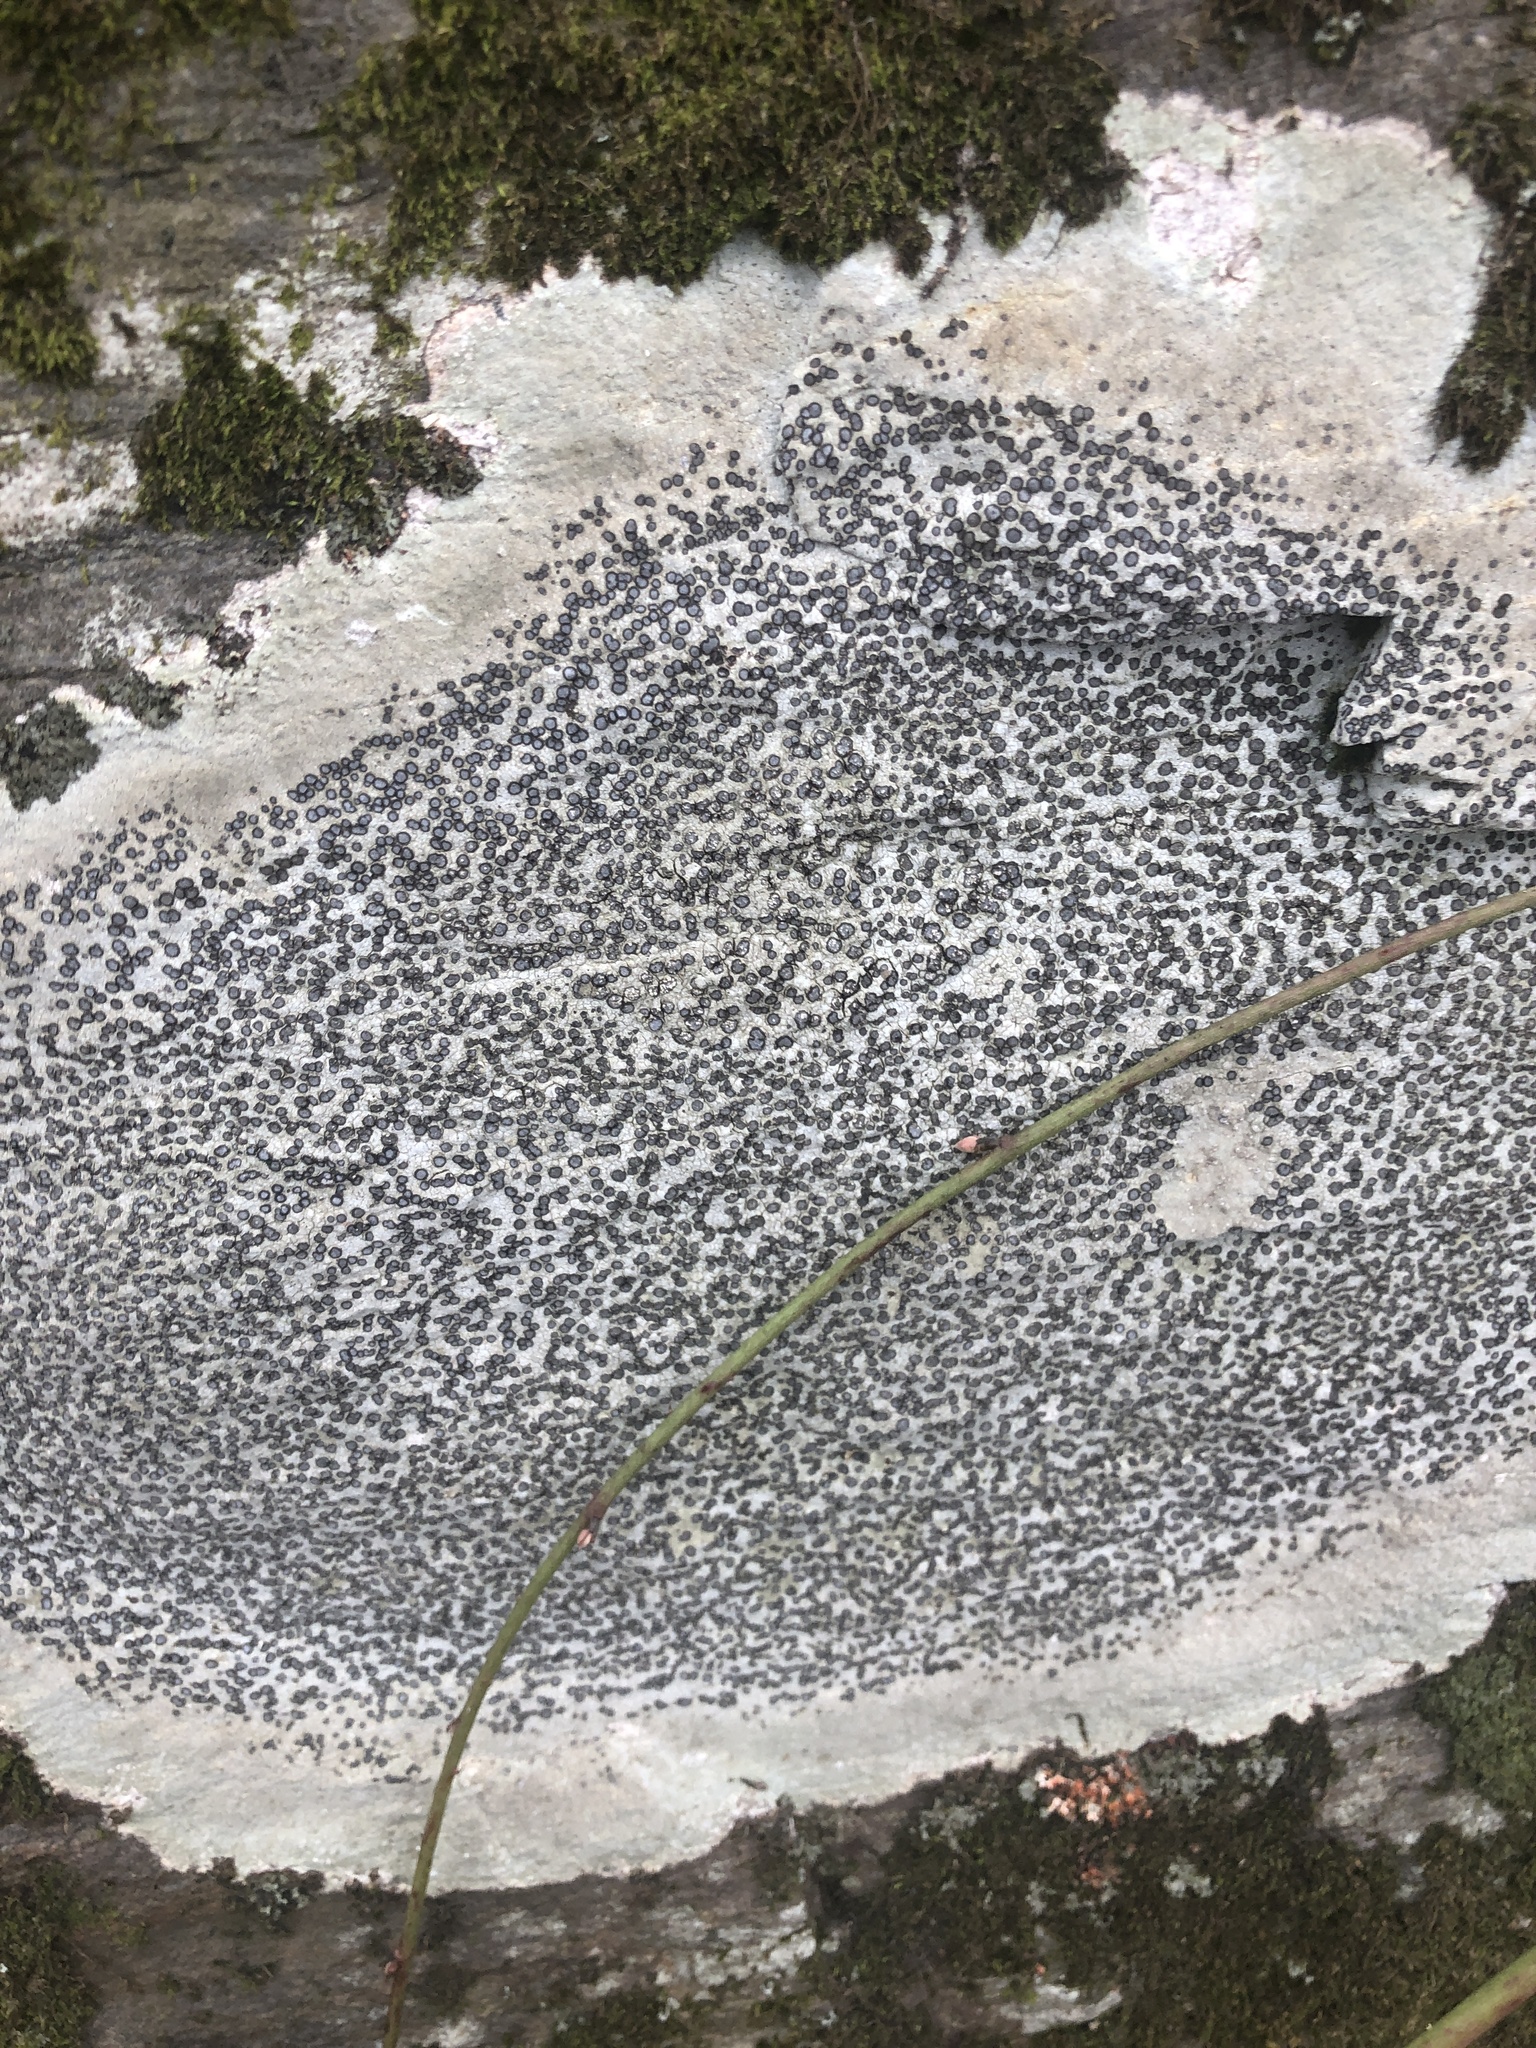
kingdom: Fungi
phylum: Ascomycota
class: Lecanoromycetes
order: Lecideales
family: Lecideaceae
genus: Porpidia
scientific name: Porpidia albocaerulescens
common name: Smokey-eyed boulder lichen
